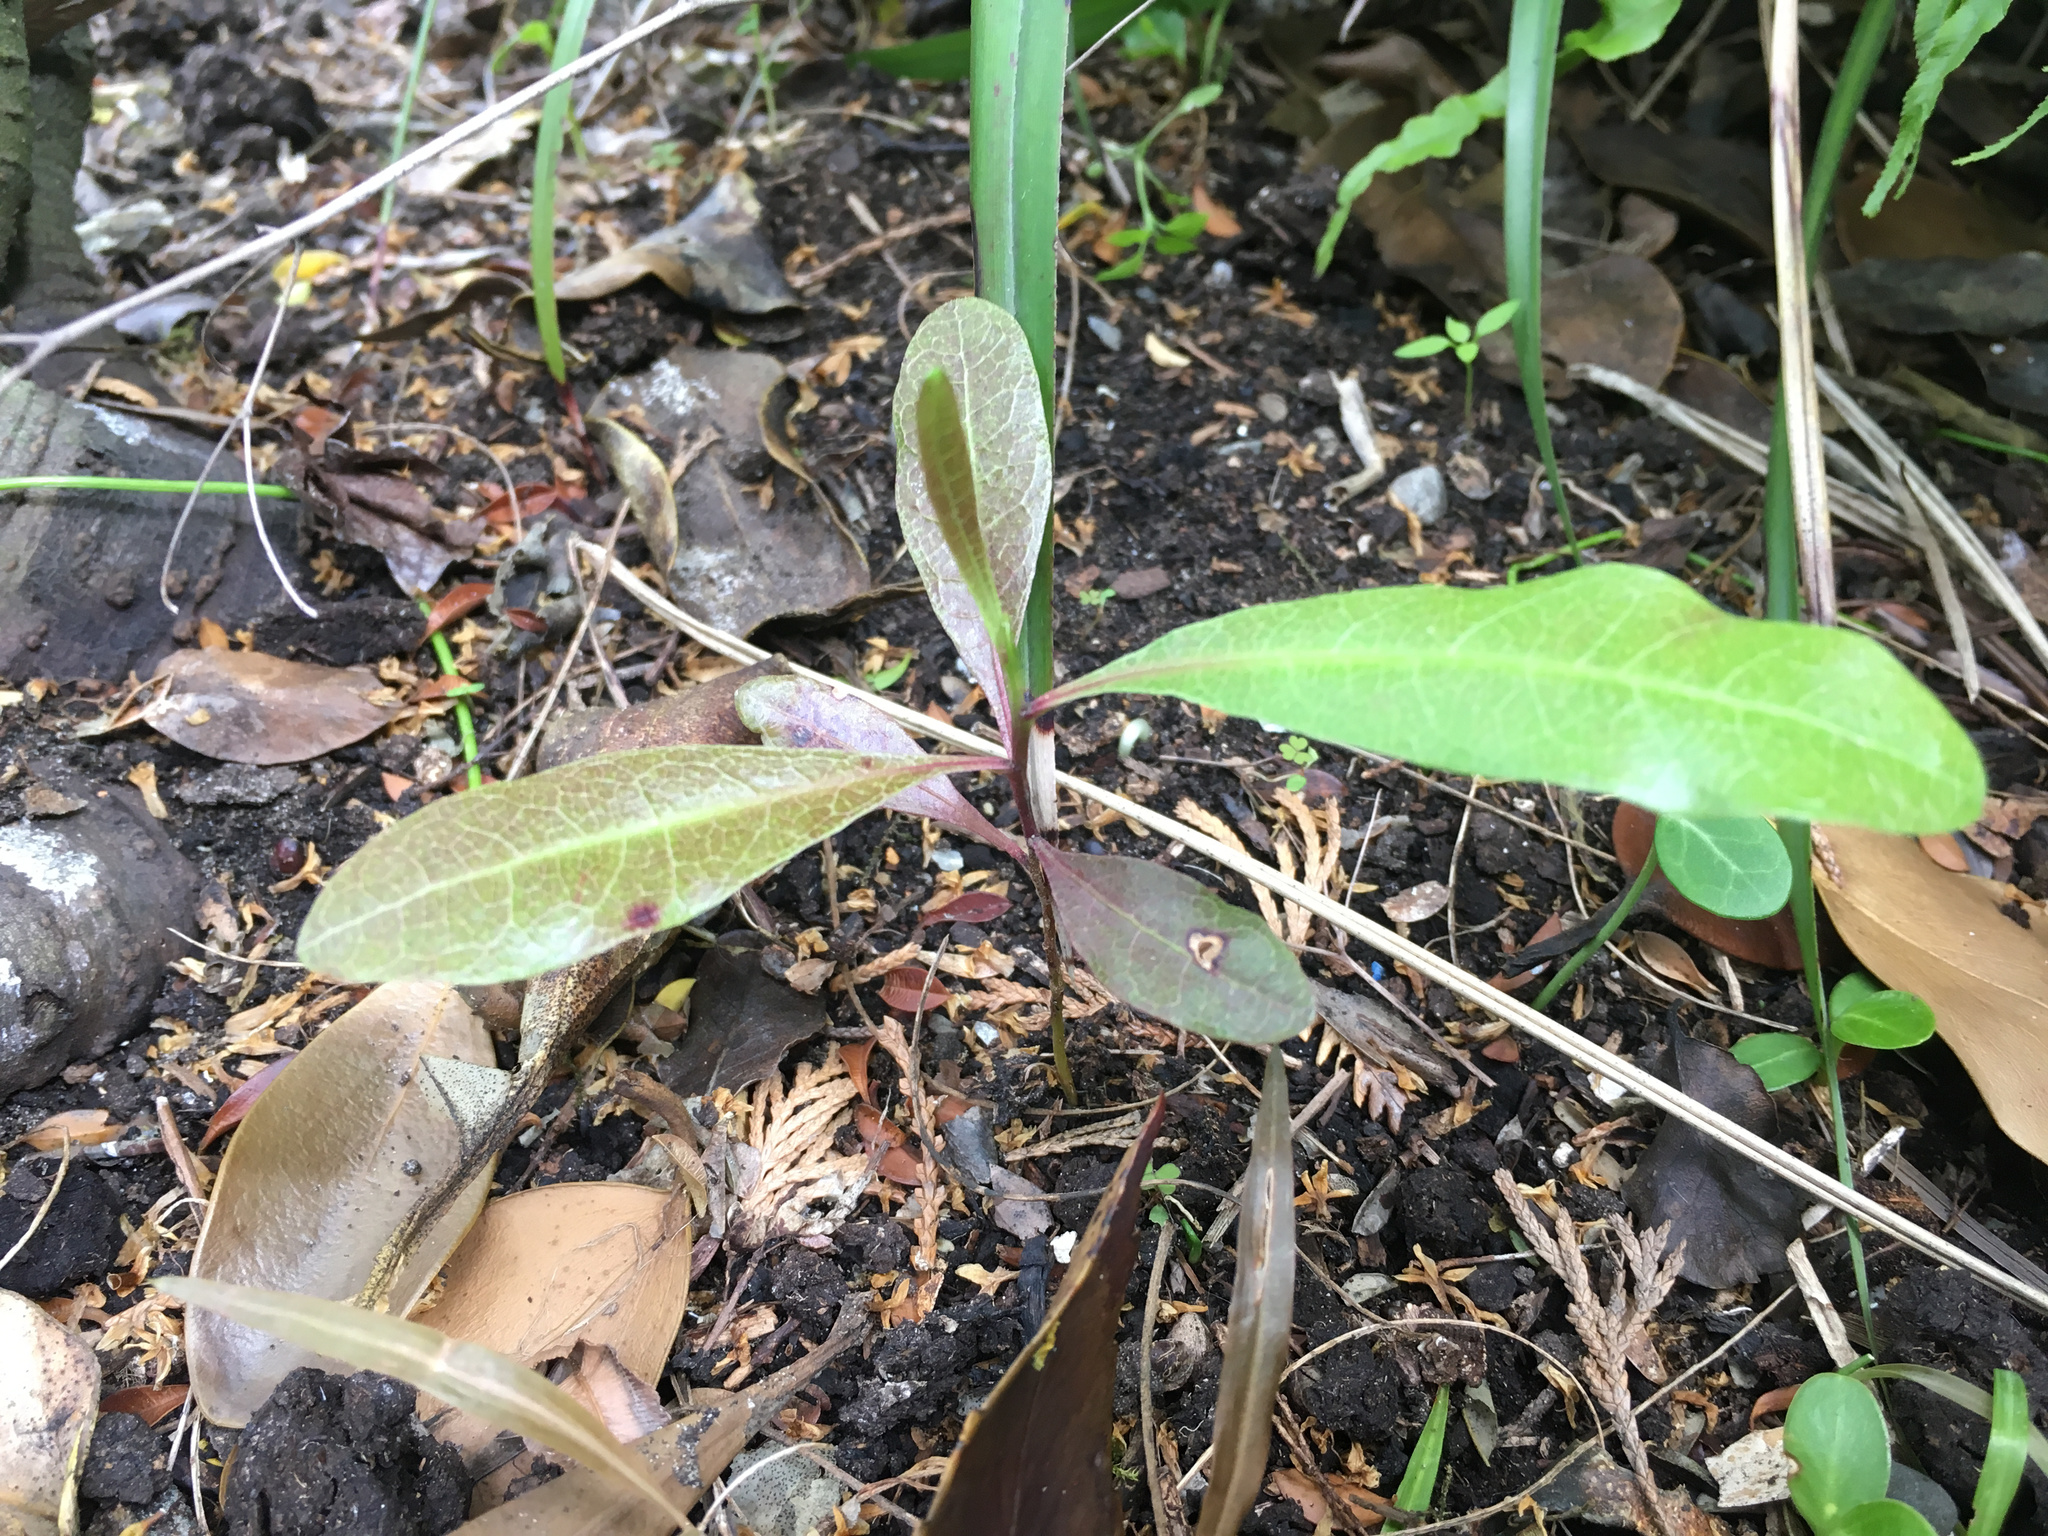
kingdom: Plantae
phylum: Tracheophyta
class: Magnoliopsida
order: Sapindales
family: Sapindaceae
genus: Dodonaea
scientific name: Dodonaea viscosa
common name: Hopbush
